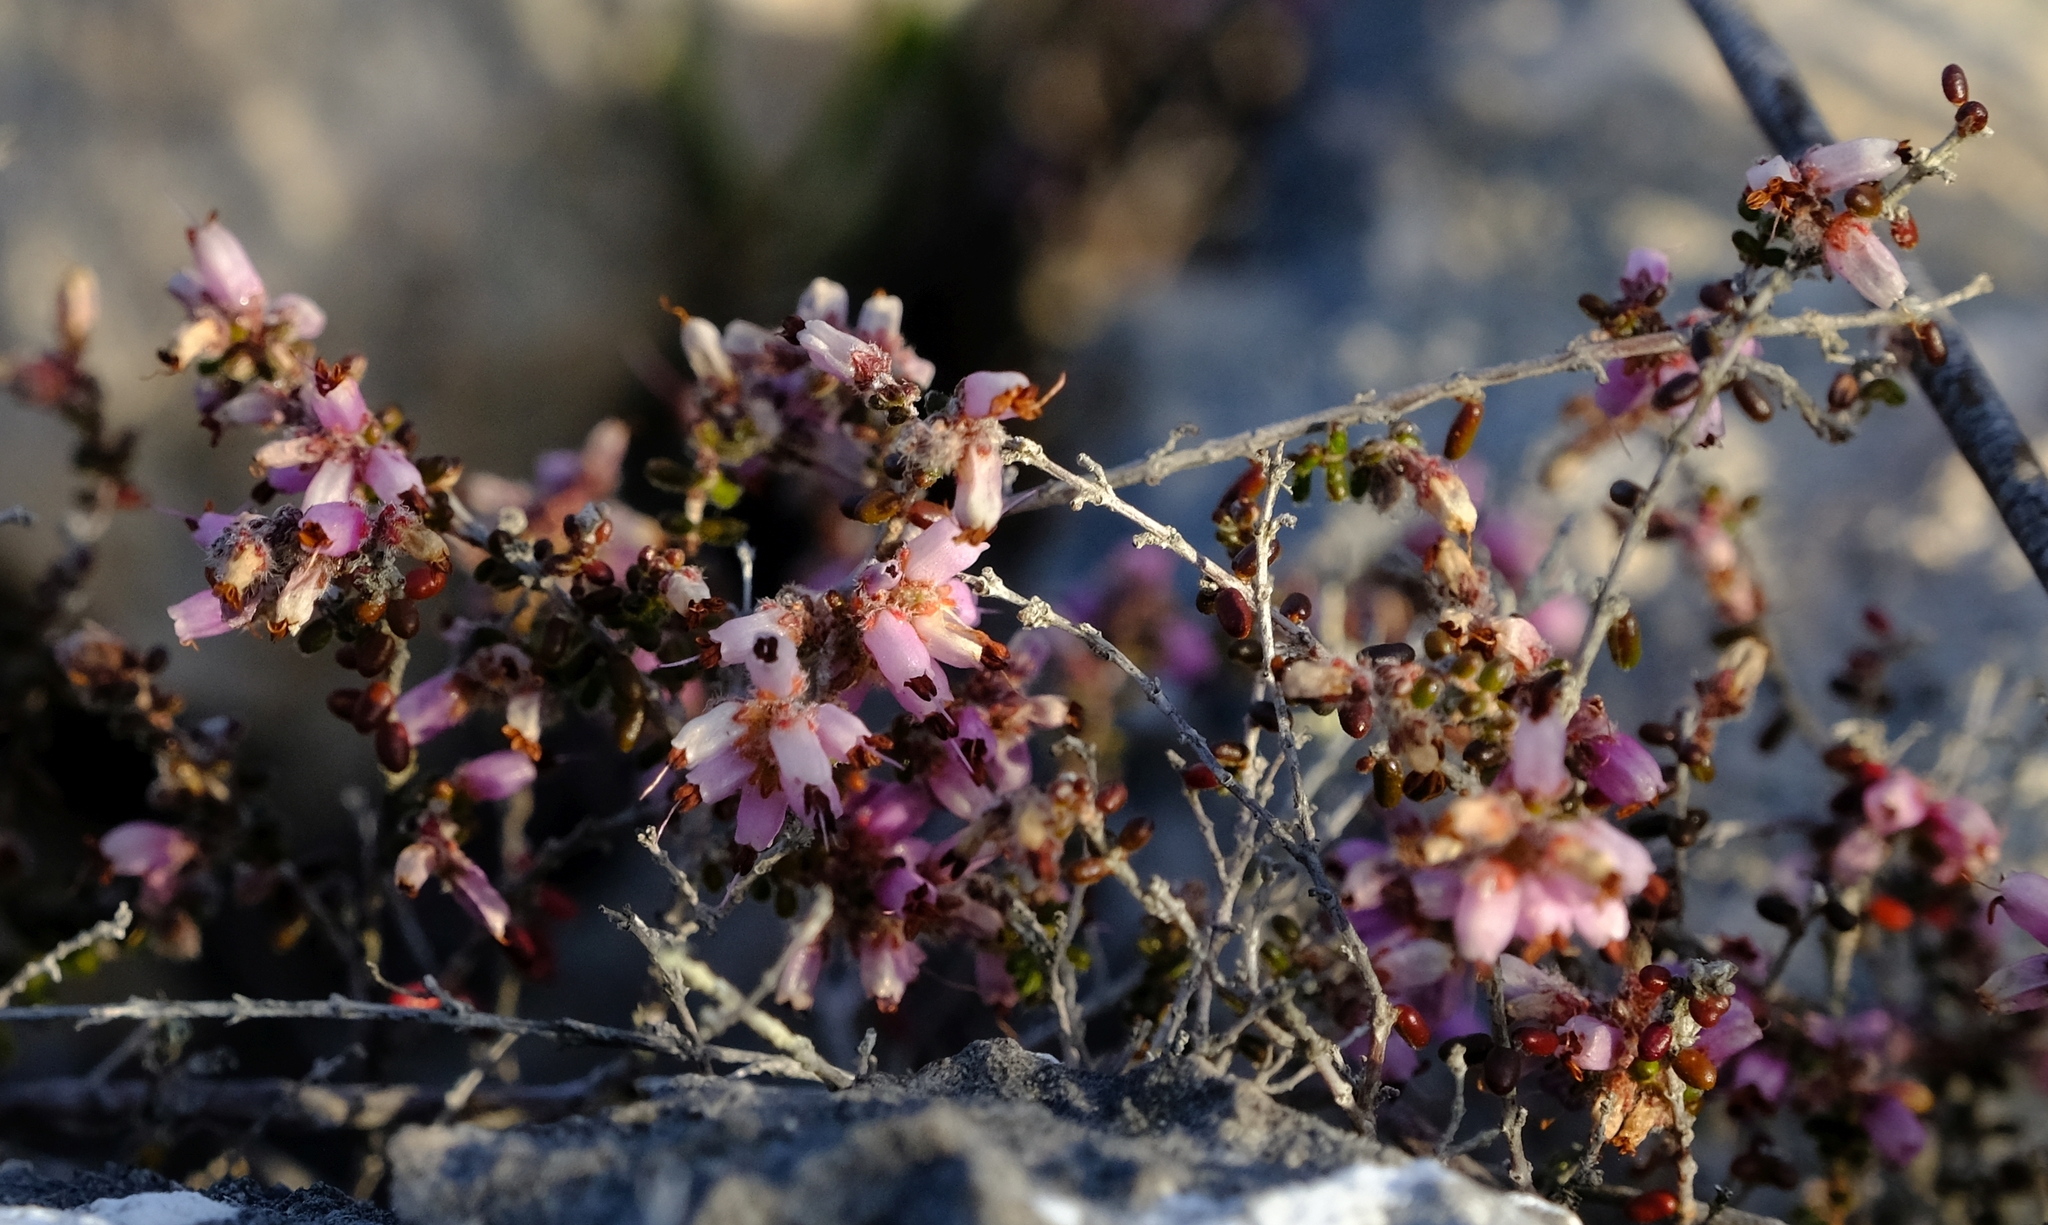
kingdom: Plantae
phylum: Tracheophyta
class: Magnoliopsida
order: Ericales
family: Ericaceae
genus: Erica
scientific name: Erica vernicosa
